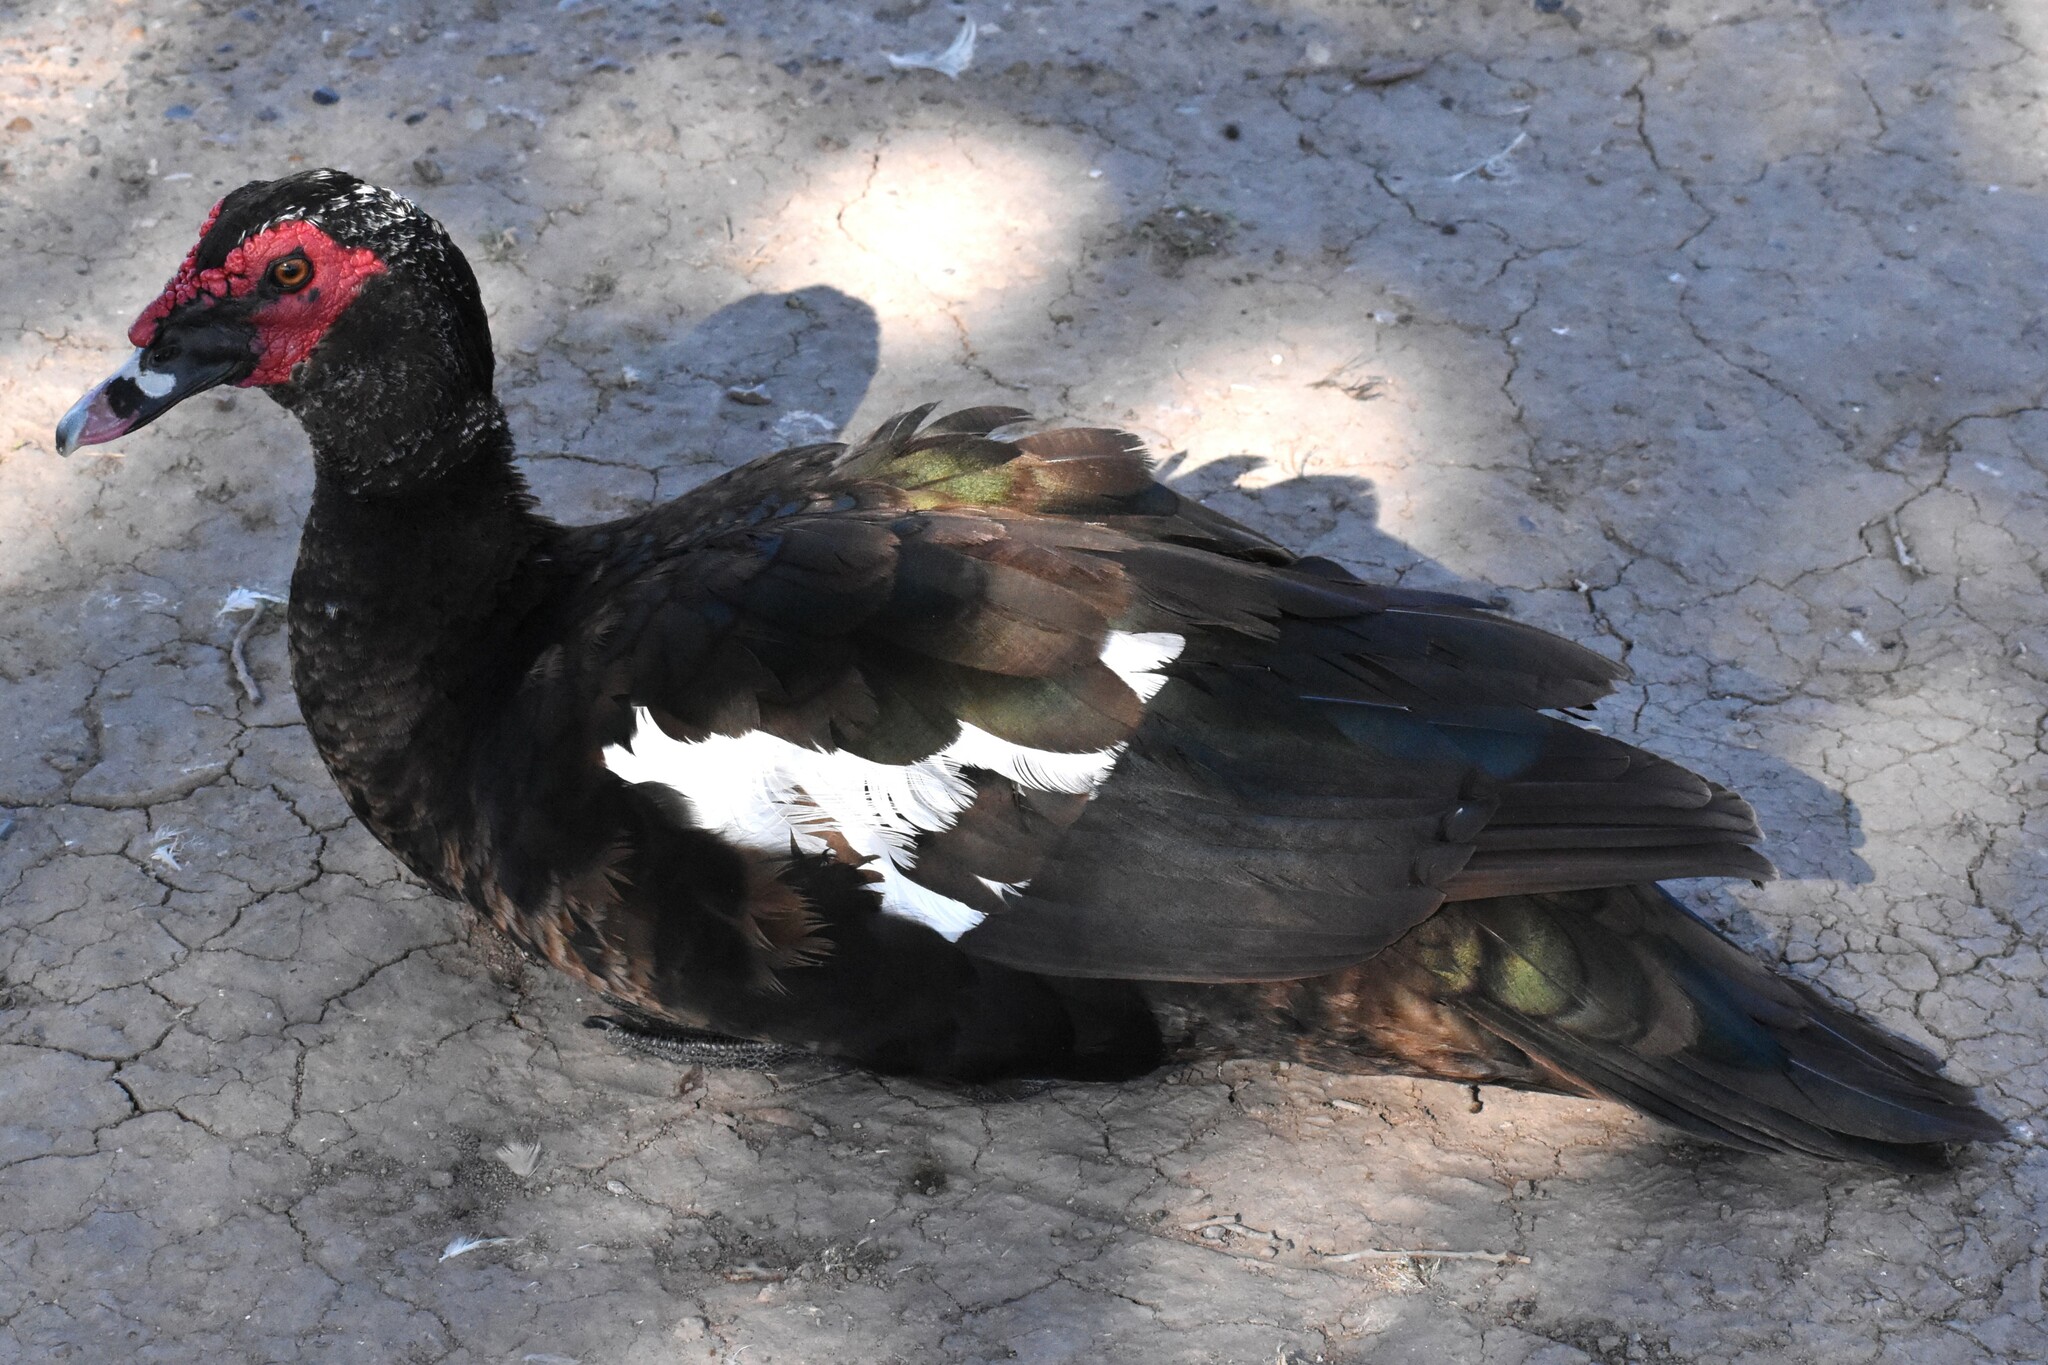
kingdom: Animalia
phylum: Chordata
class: Aves
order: Anseriformes
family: Anatidae
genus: Cairina
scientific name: Cairina moschata
